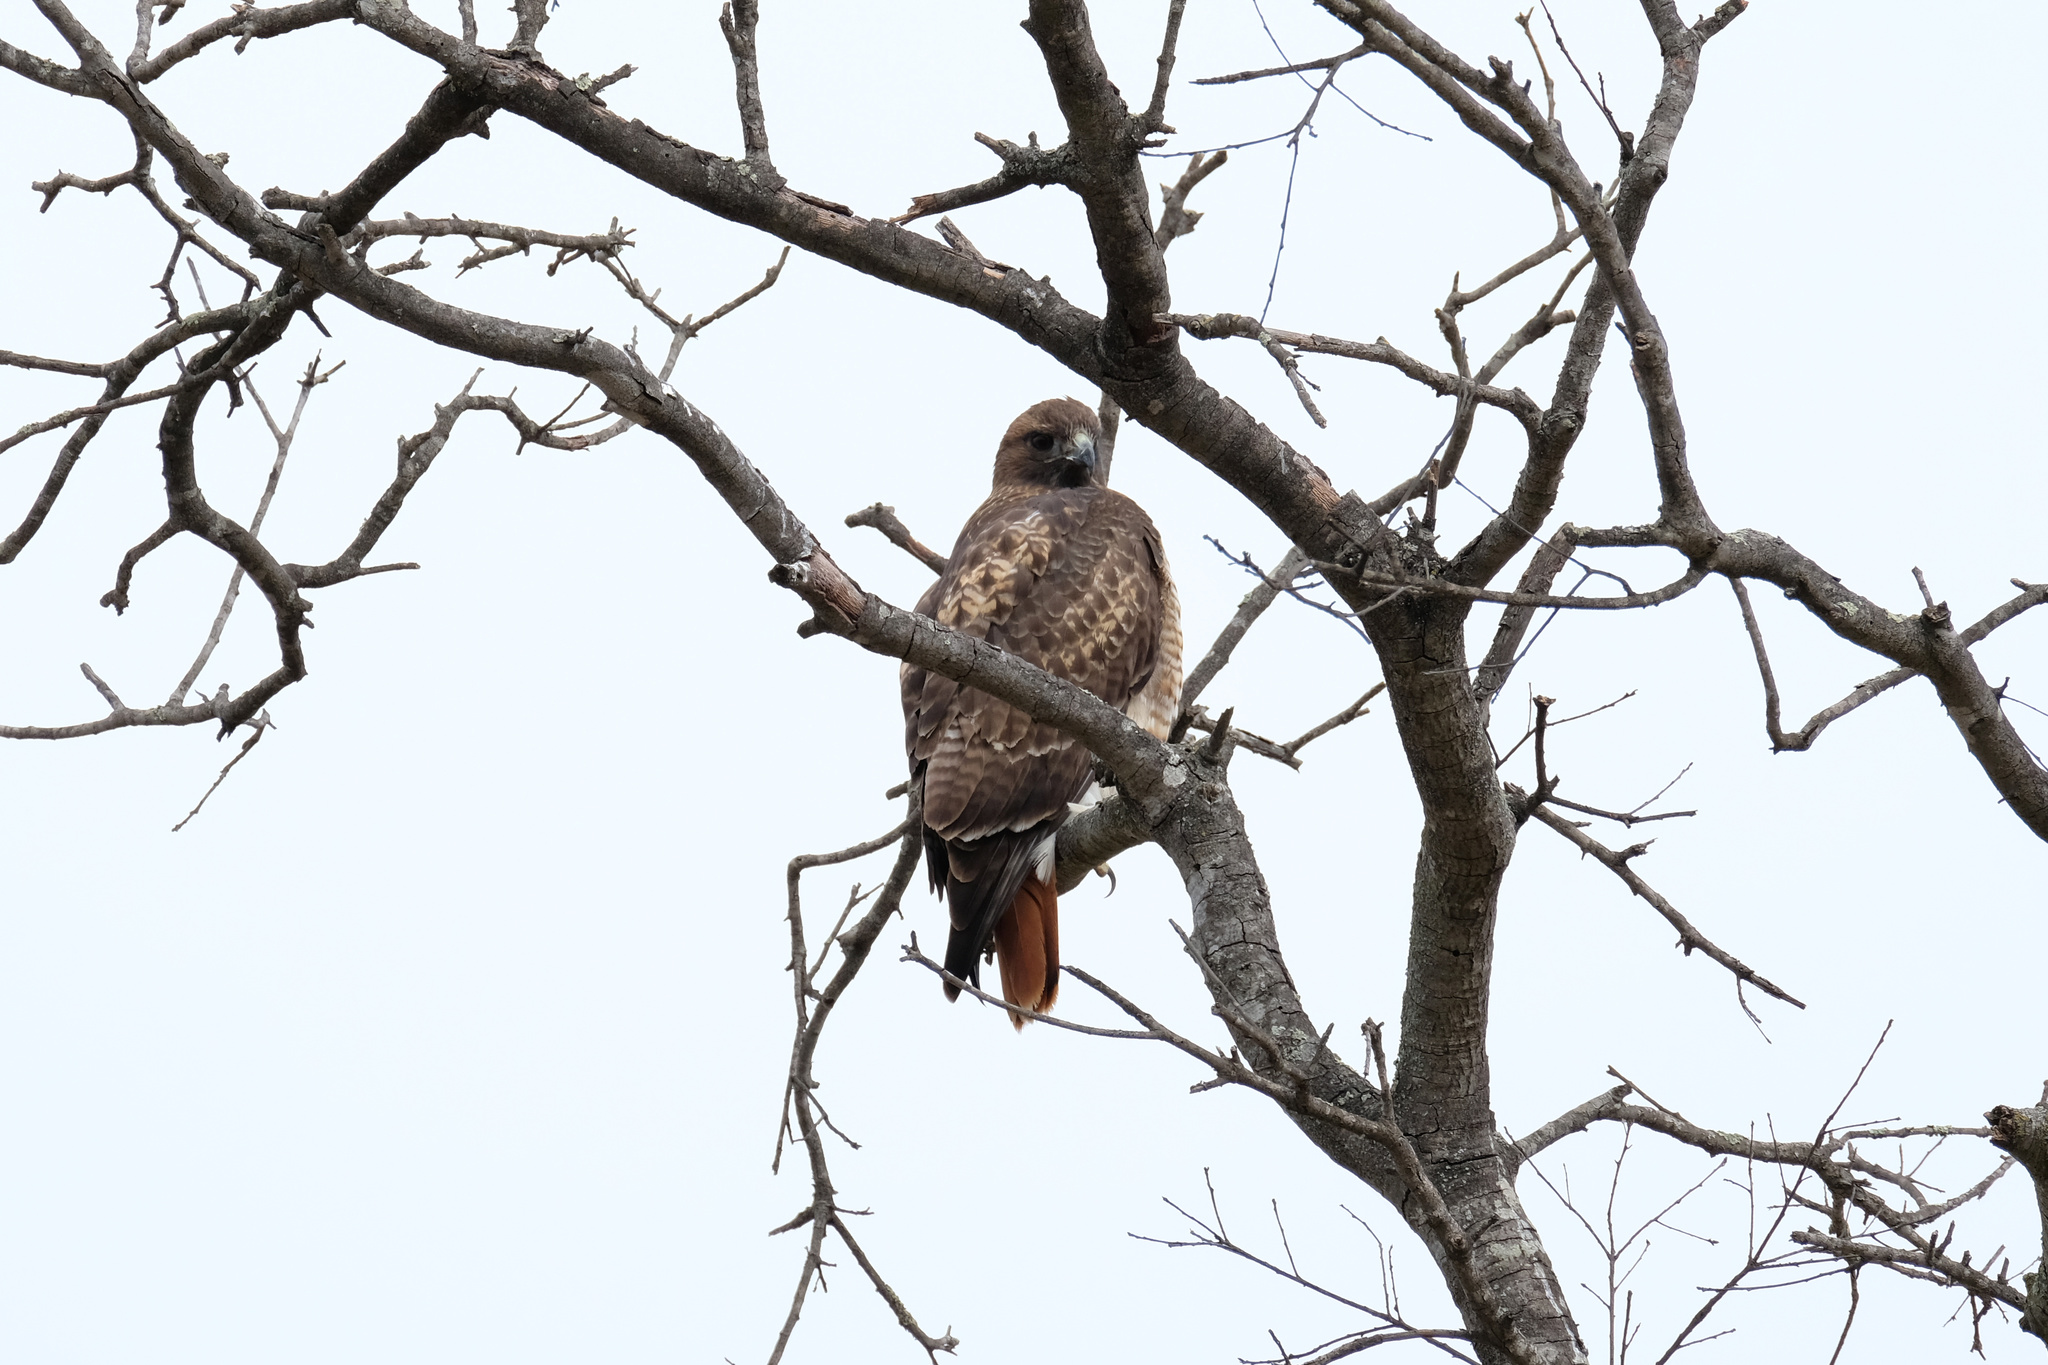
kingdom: Animalia
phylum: Chordata
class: Aves
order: Accipitriformes
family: Accipitridae
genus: Buteo
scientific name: Buteo jamaicensis
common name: Red-tailed hawk
